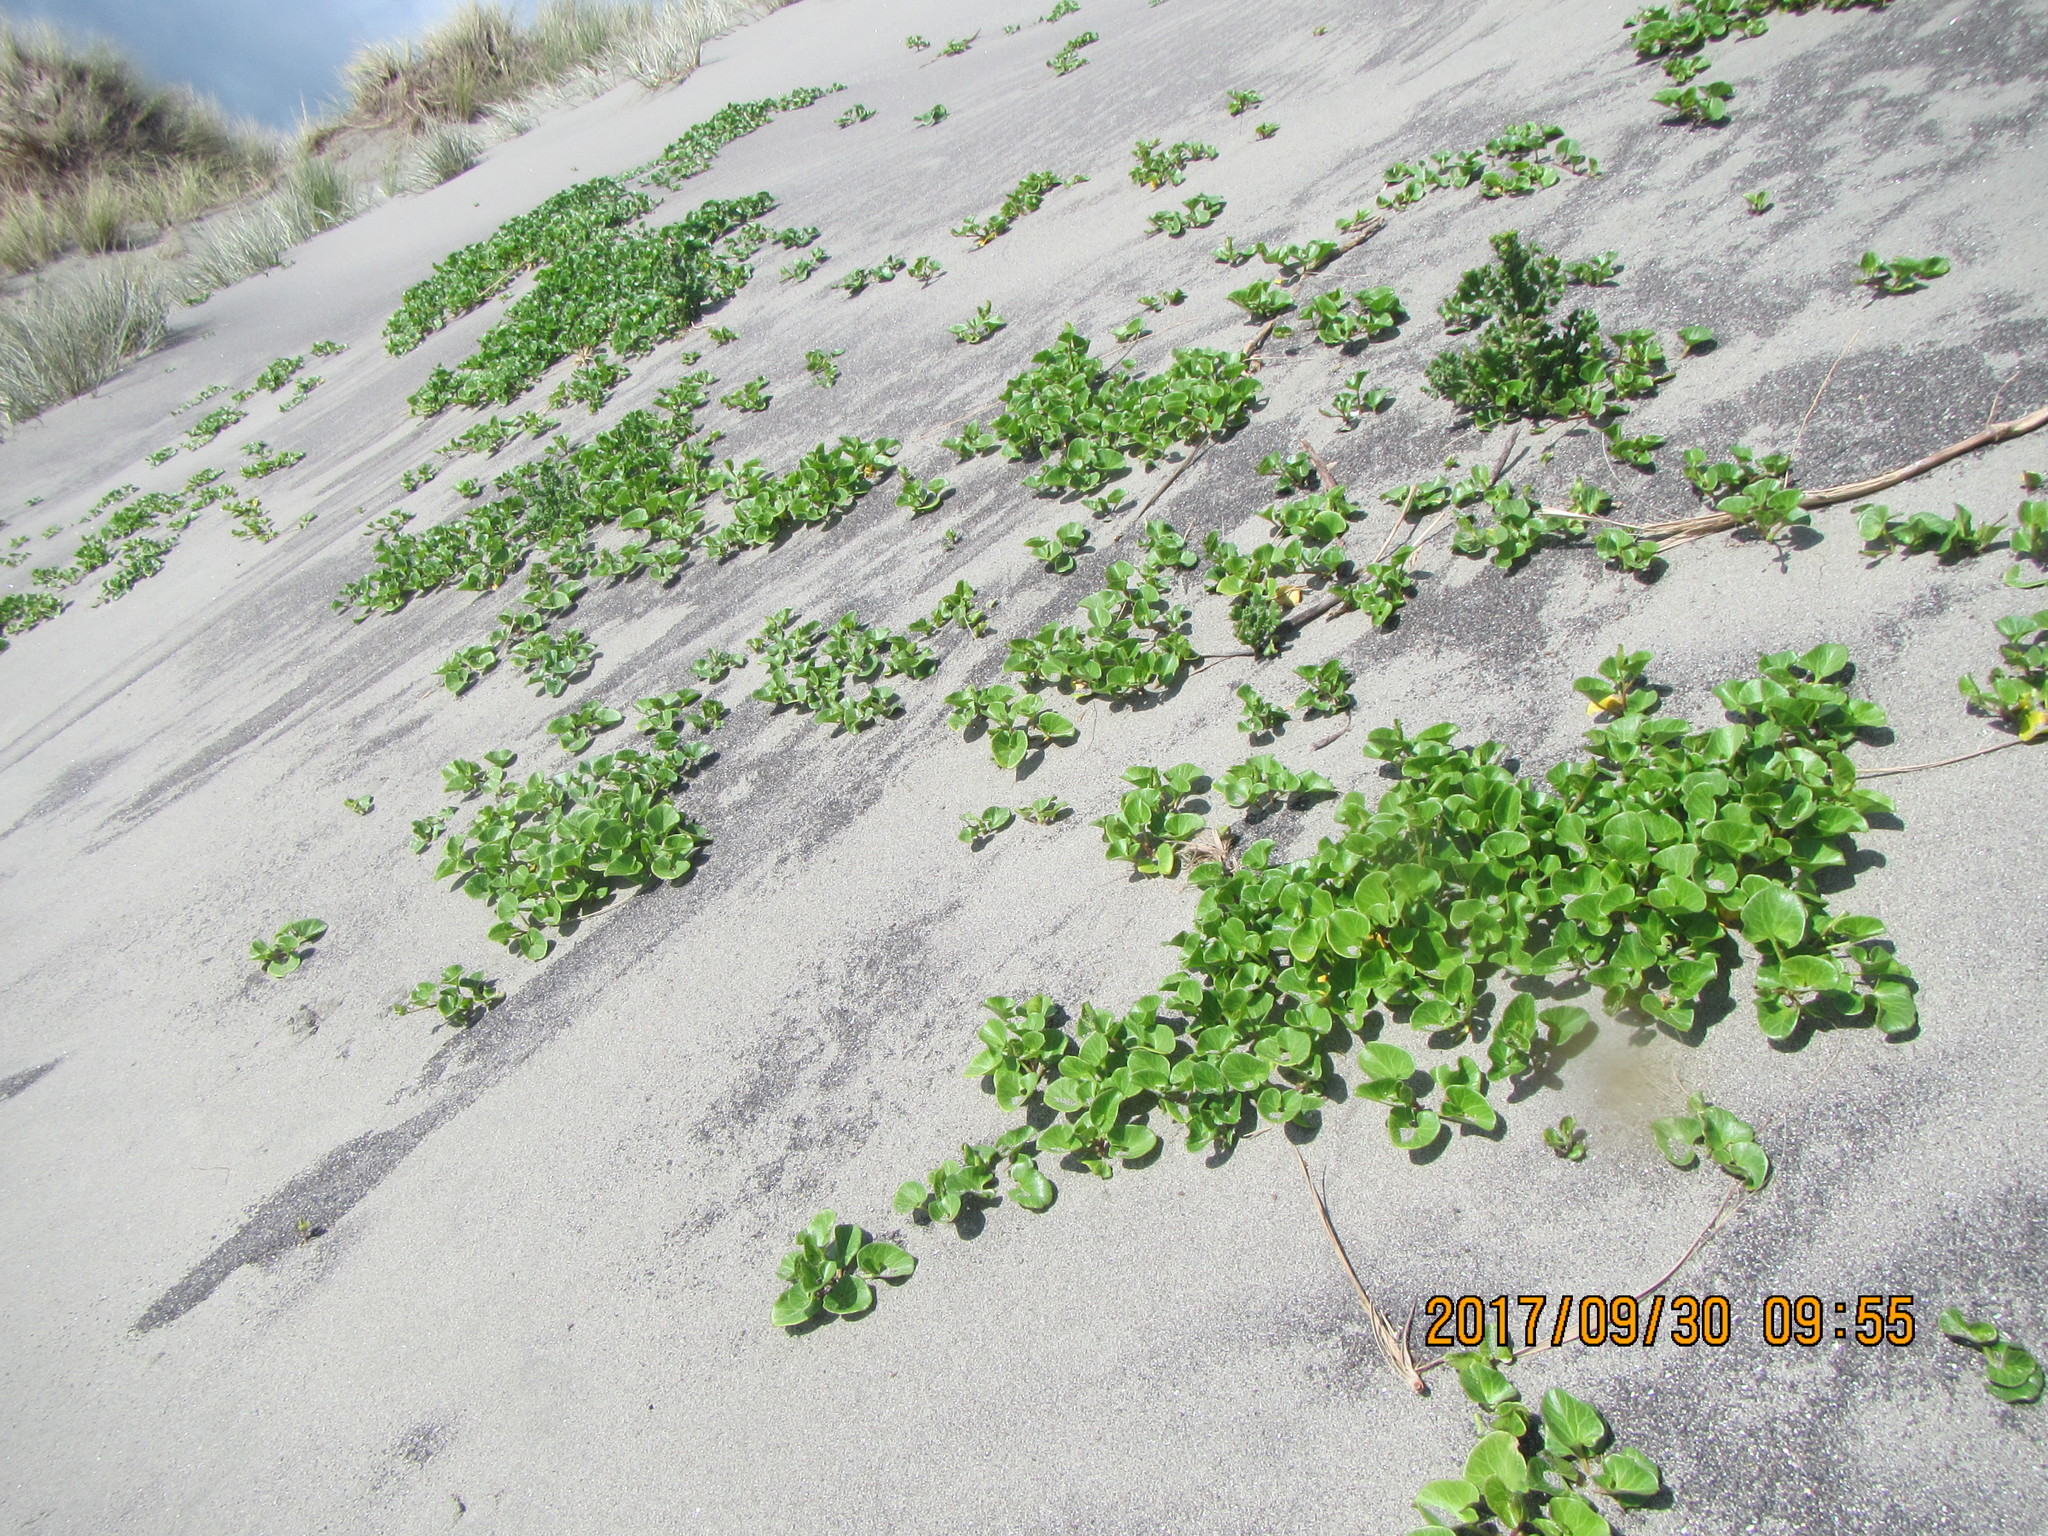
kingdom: Plantae
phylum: Tracheophyta
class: Magnoliopsida
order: Solanales
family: Convolvulaceae
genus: Calystegia
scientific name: Calystegia soldanella
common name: Sea bindweed
